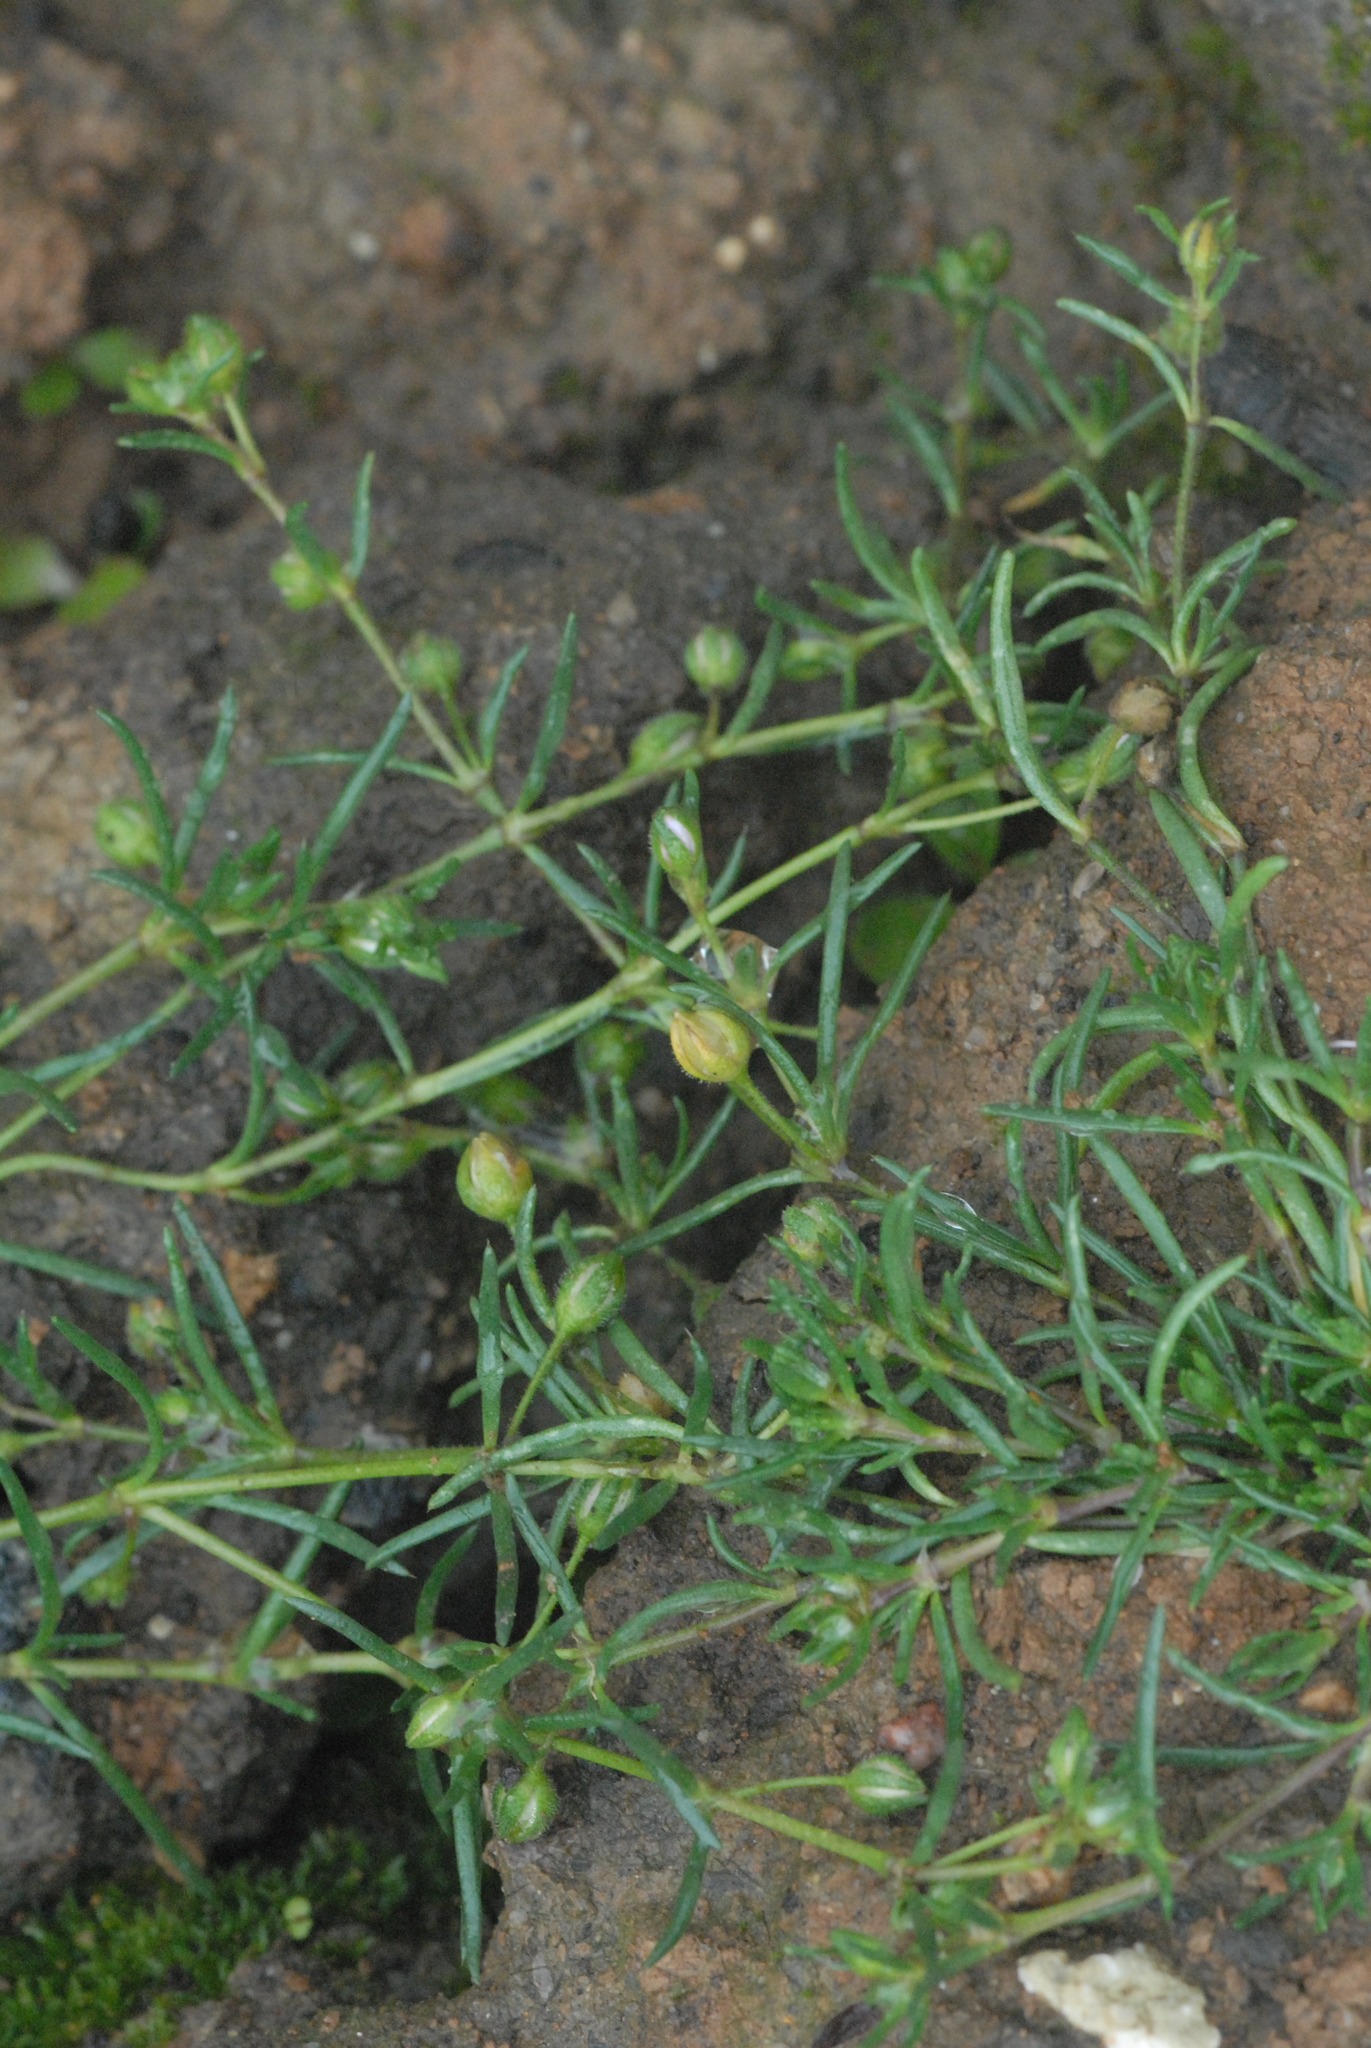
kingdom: Plantae
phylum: Tracheophyta
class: Magnoliopsida
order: Caryophyllales
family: Caryophyllaceae
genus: Sagina
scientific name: Sagina procumbens
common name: Procumbent pearlwort
